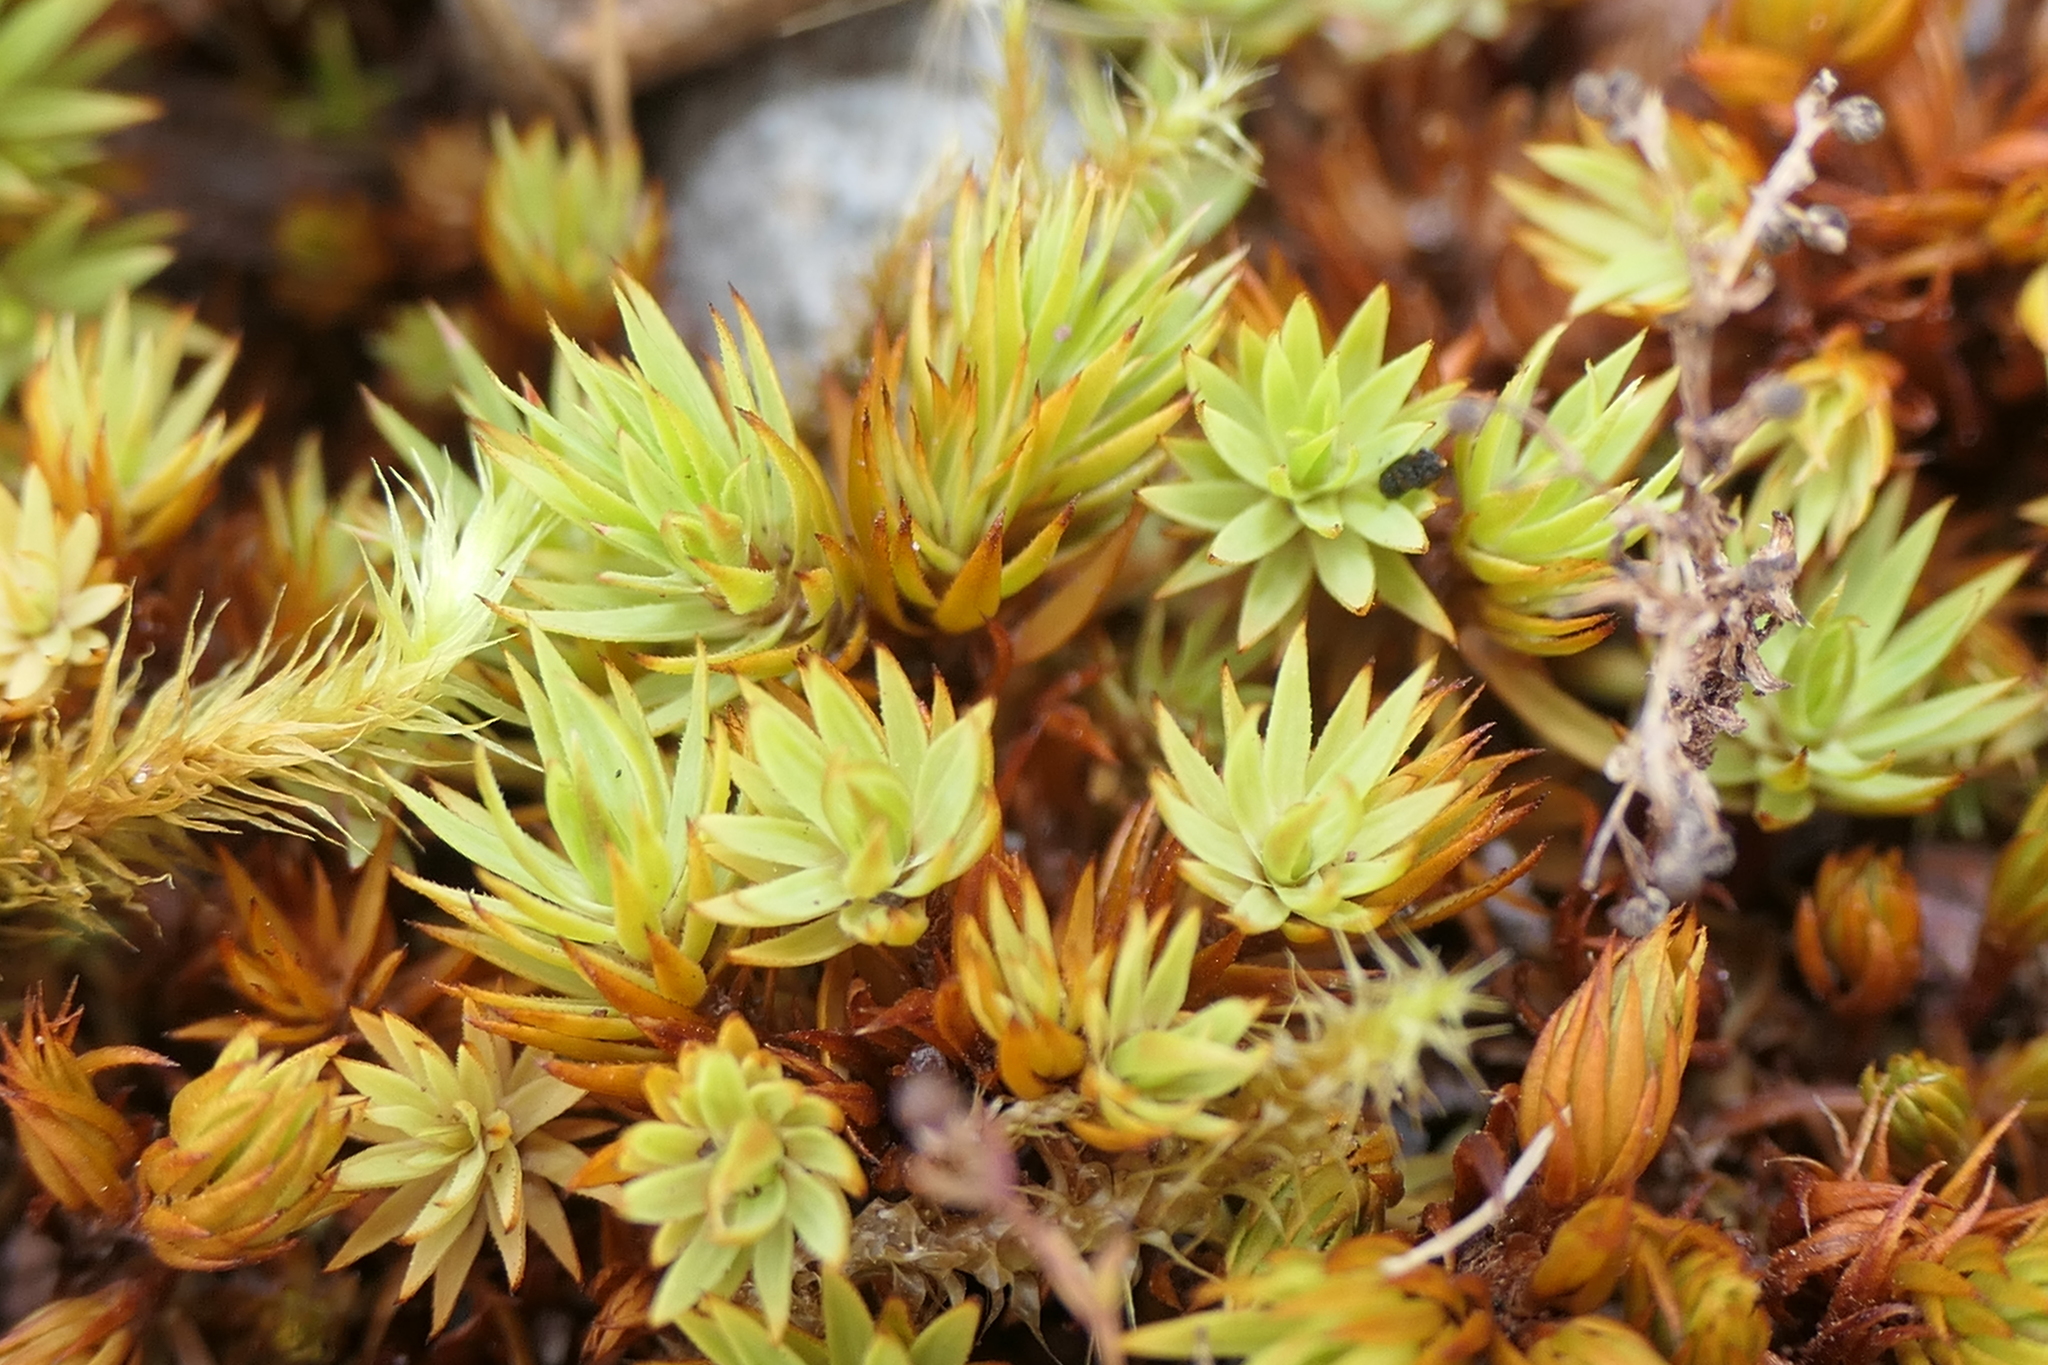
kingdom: Plantae
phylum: Bryophyta
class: Polytrichopsida
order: Polytrichales
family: Polytrichaceae
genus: Pogonatum
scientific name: Pogonatum urnigerum
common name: Urn hair moss
